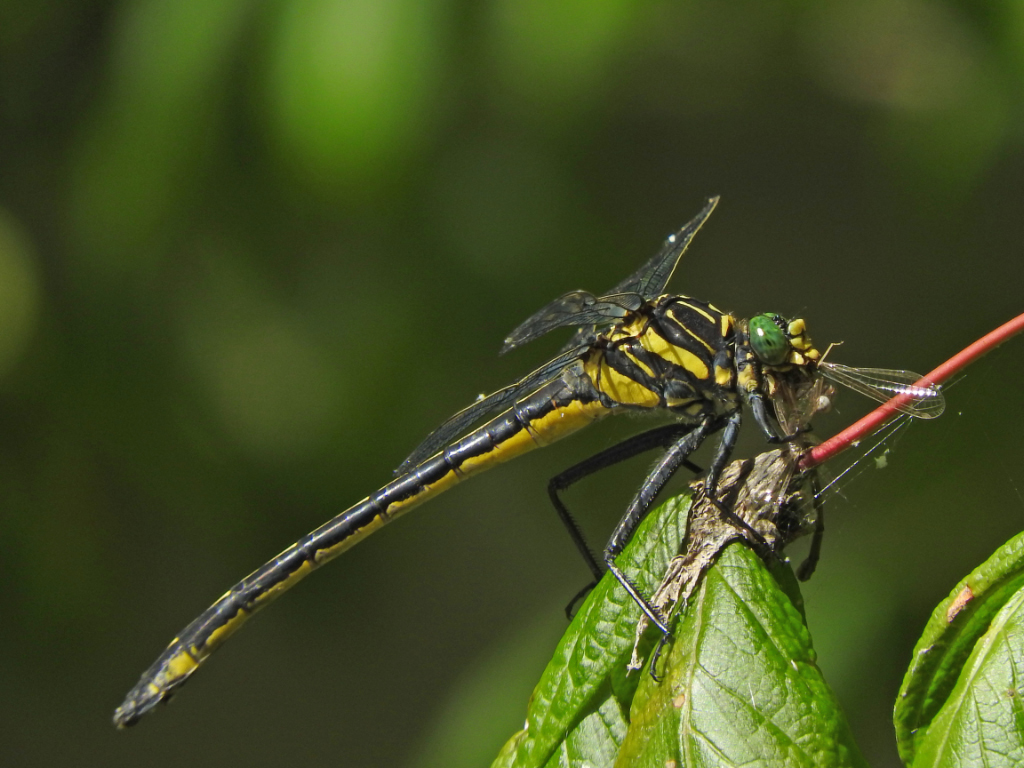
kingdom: Animalia
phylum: Arthropoda
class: Insecta
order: Odonata
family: Gomphidae
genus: Hagenius
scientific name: Hagenius brevistylus
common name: Dragonhunter
